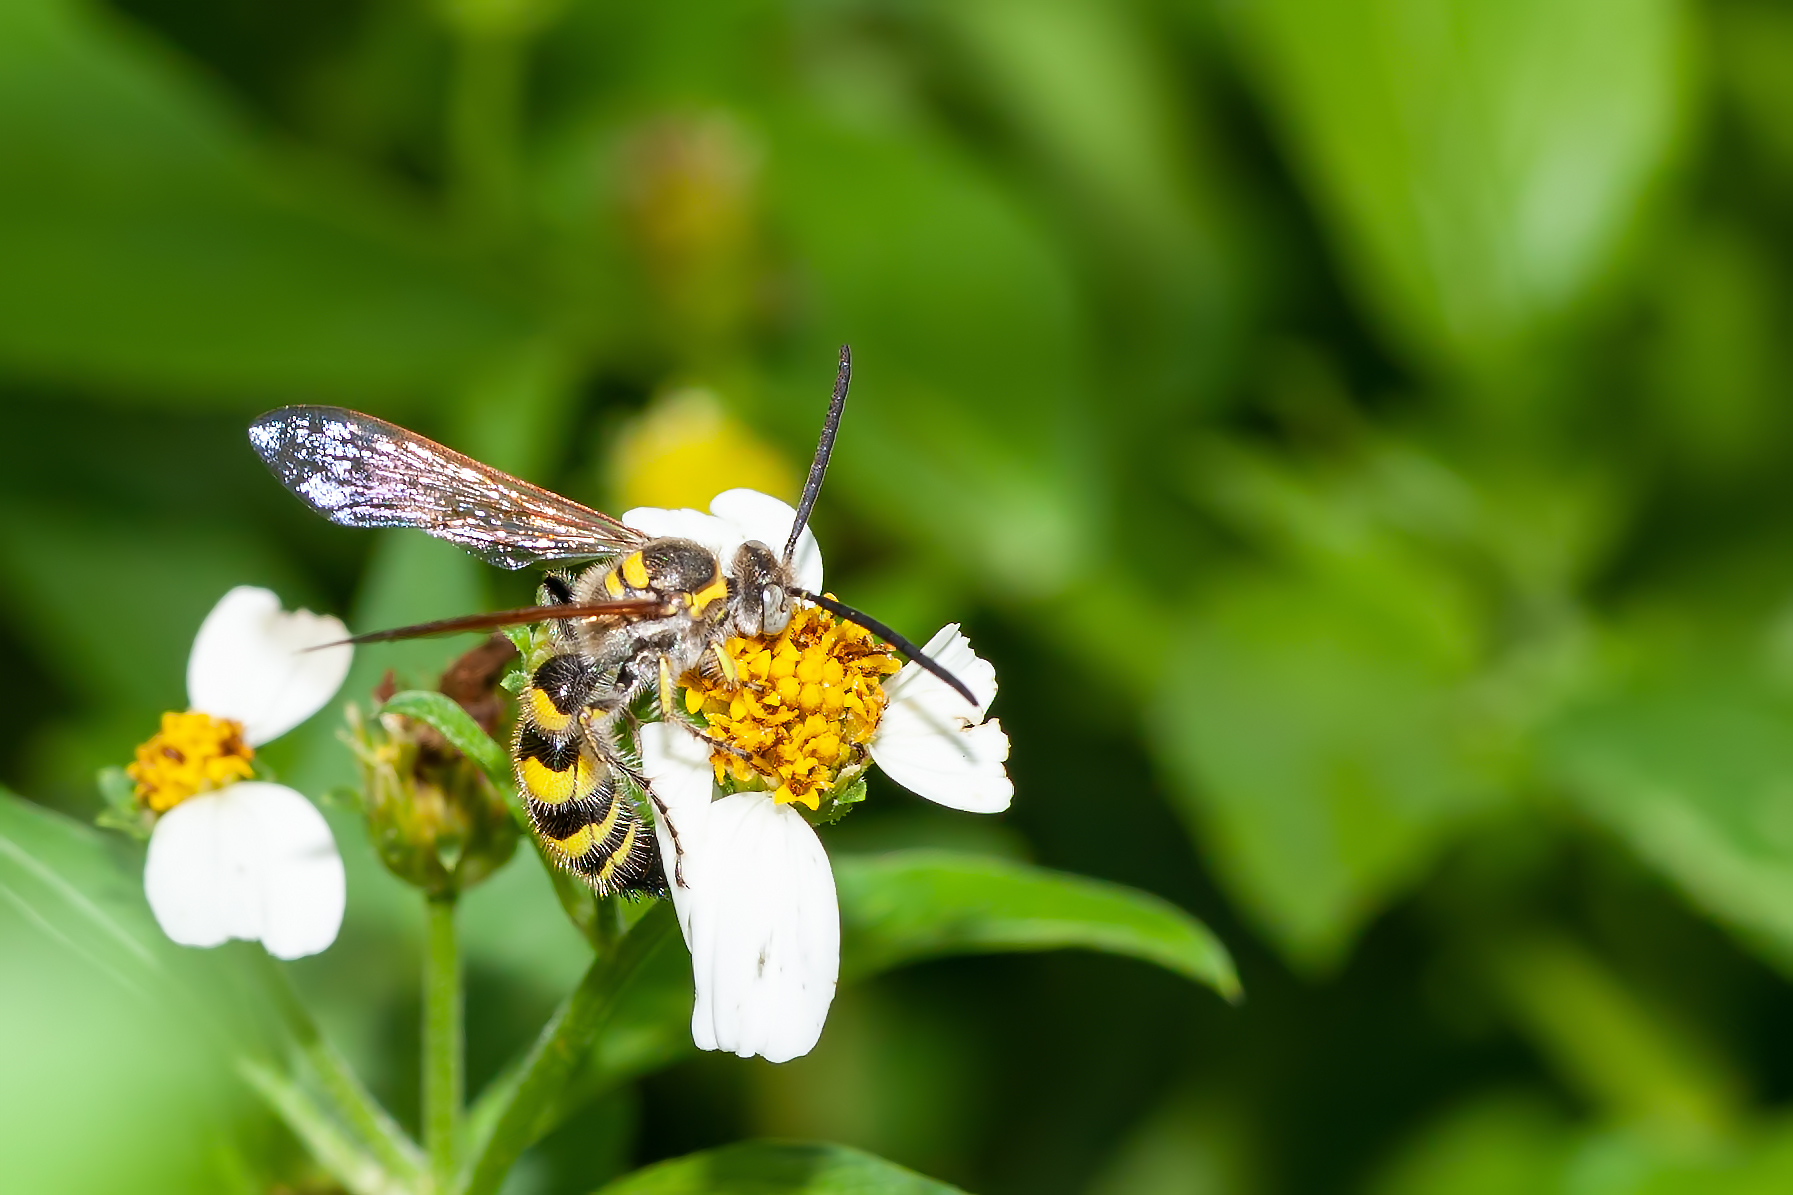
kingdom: Animalia
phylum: Arthropoda
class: Insecta
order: Hymenoptera
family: Scoliidae
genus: Dielis
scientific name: Dielis
